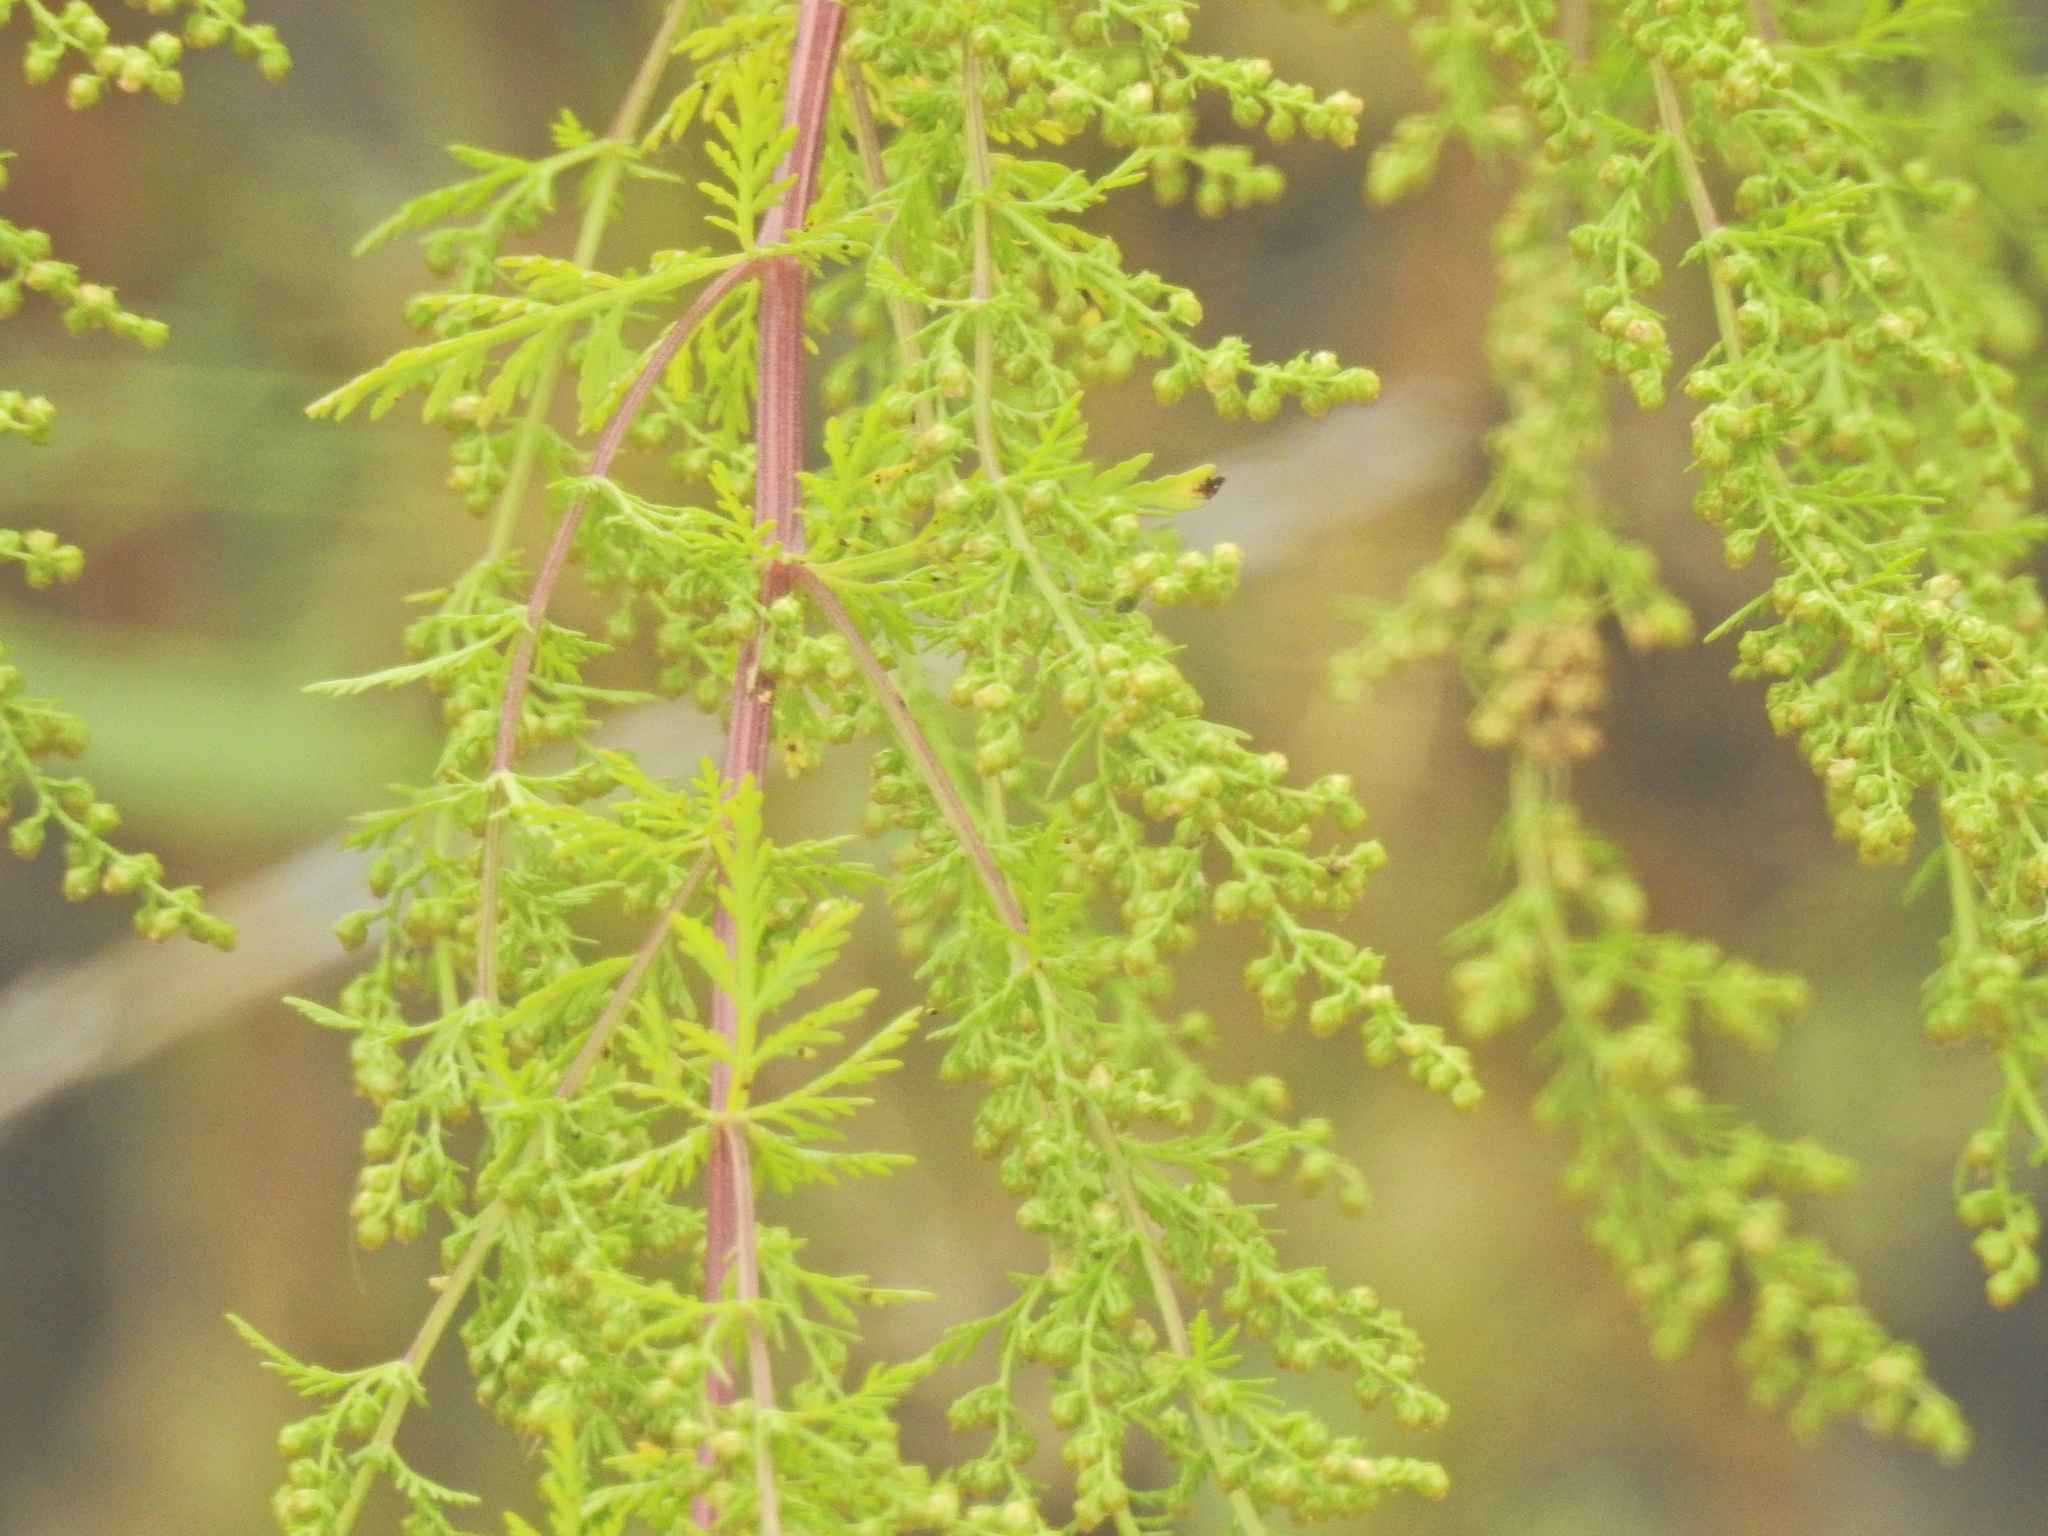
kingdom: Plantae
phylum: Tracheophyta
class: Magnoliopsida
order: Asterales
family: Asteraceae
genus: Artemisia
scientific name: Artemisia annua
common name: Sweet sagewort
